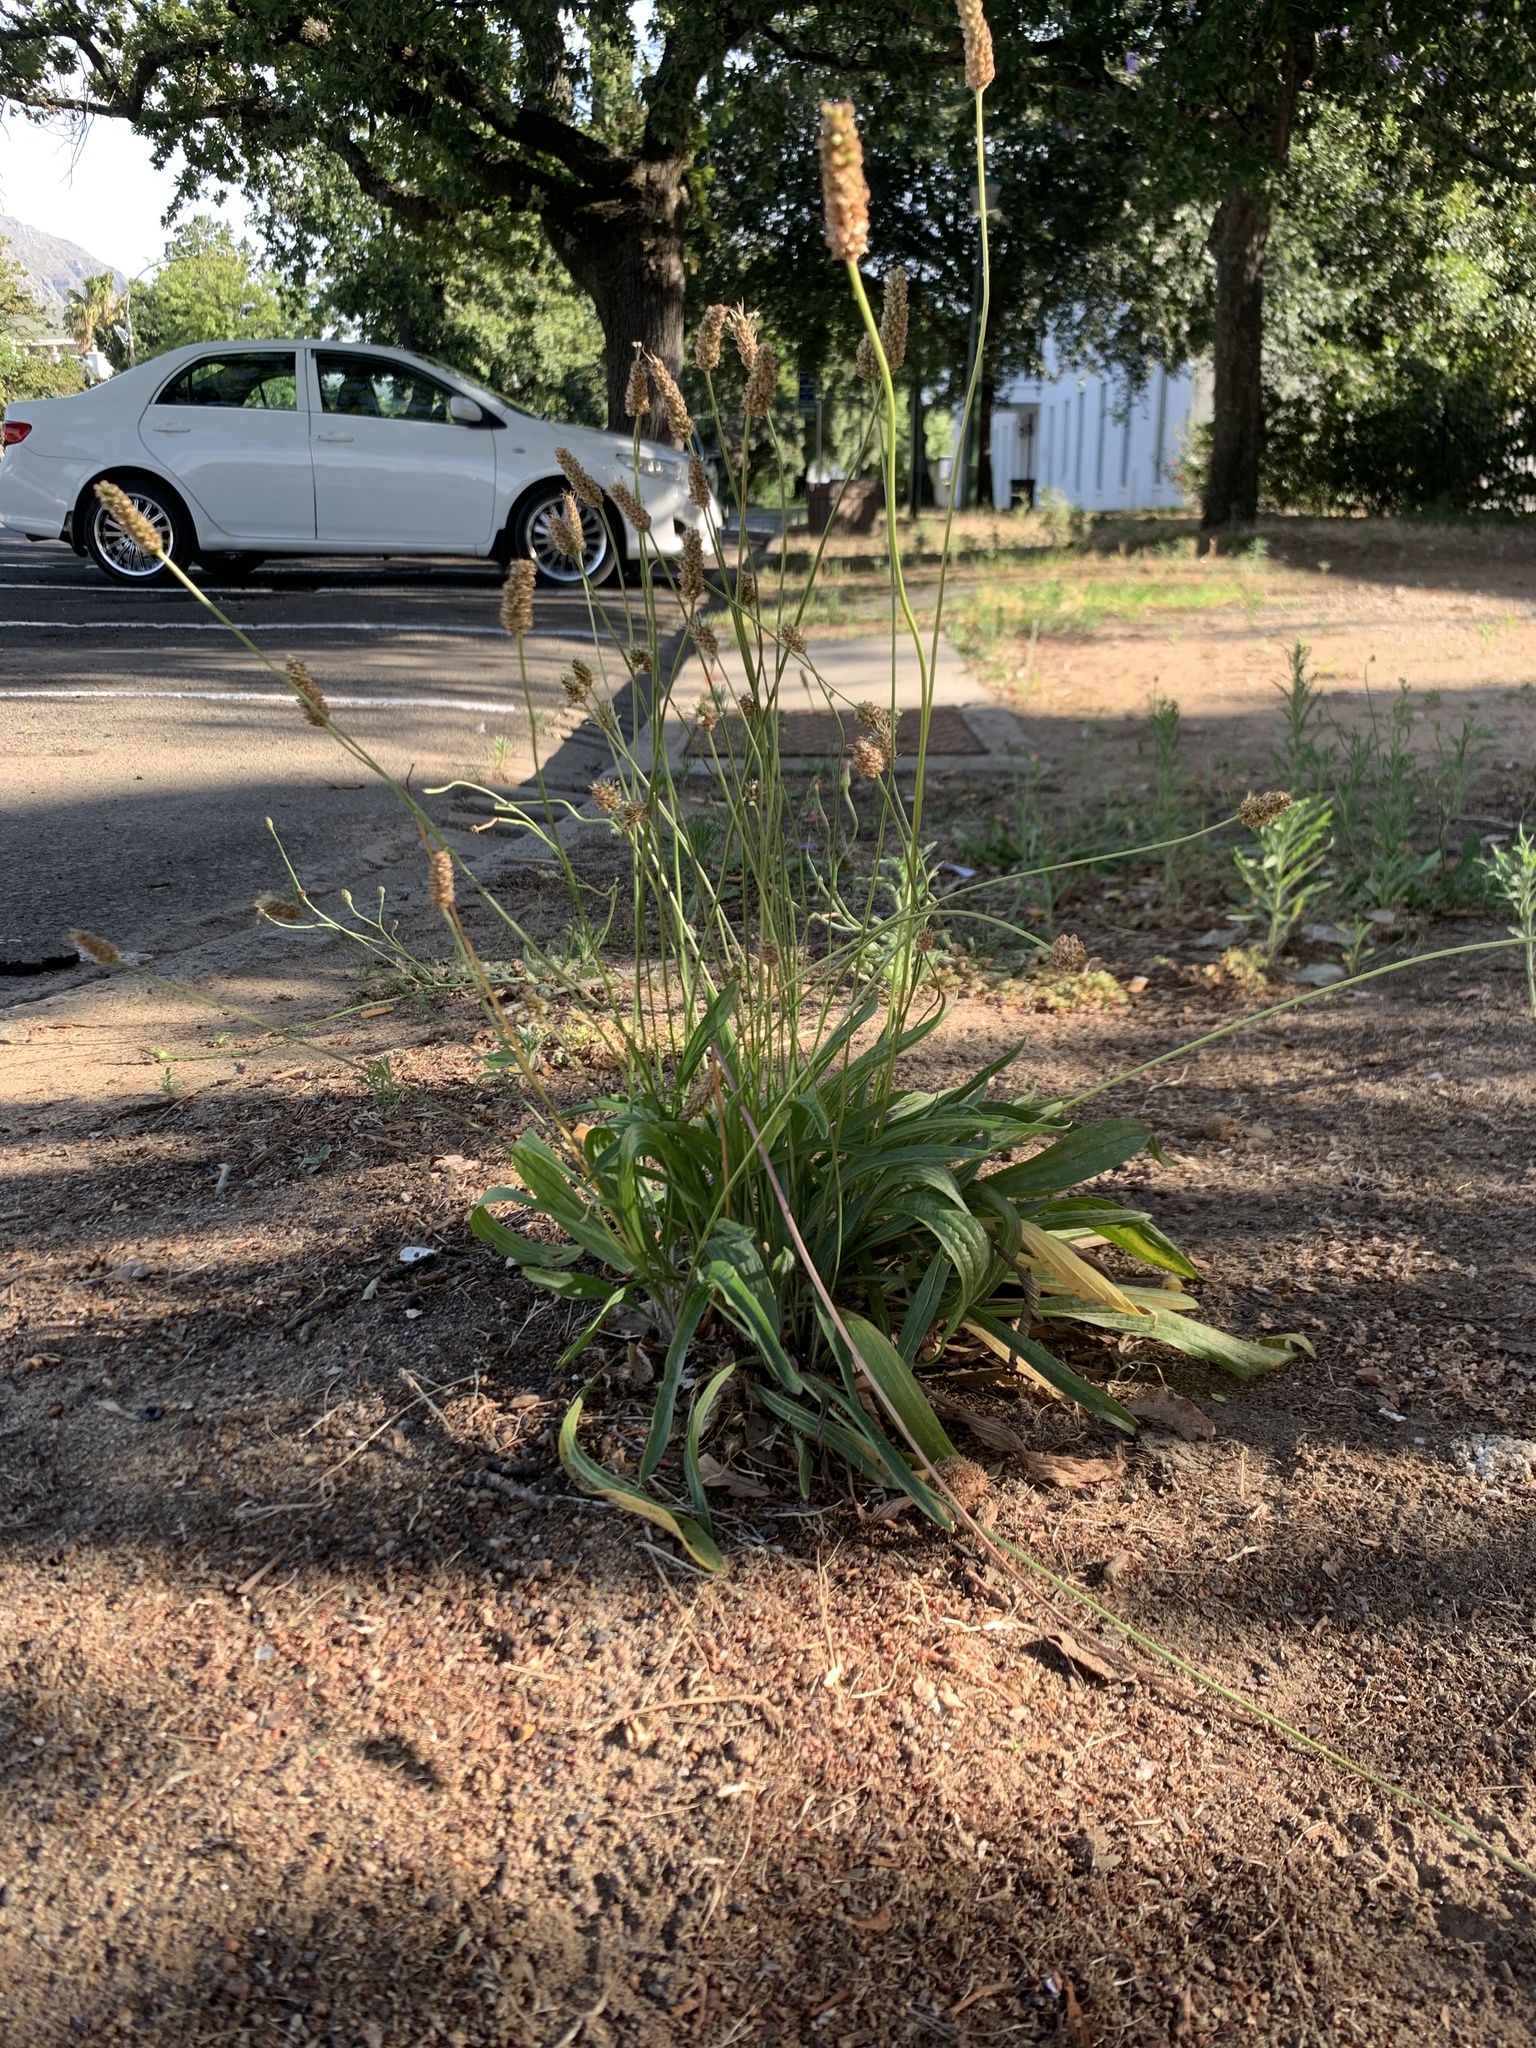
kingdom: Plantae
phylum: Tracheophyta
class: Magnoliopsida
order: Lamiales
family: Plantaginaceae
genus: Plantago
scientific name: Plantago lanceolata
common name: Ribwort plantain
